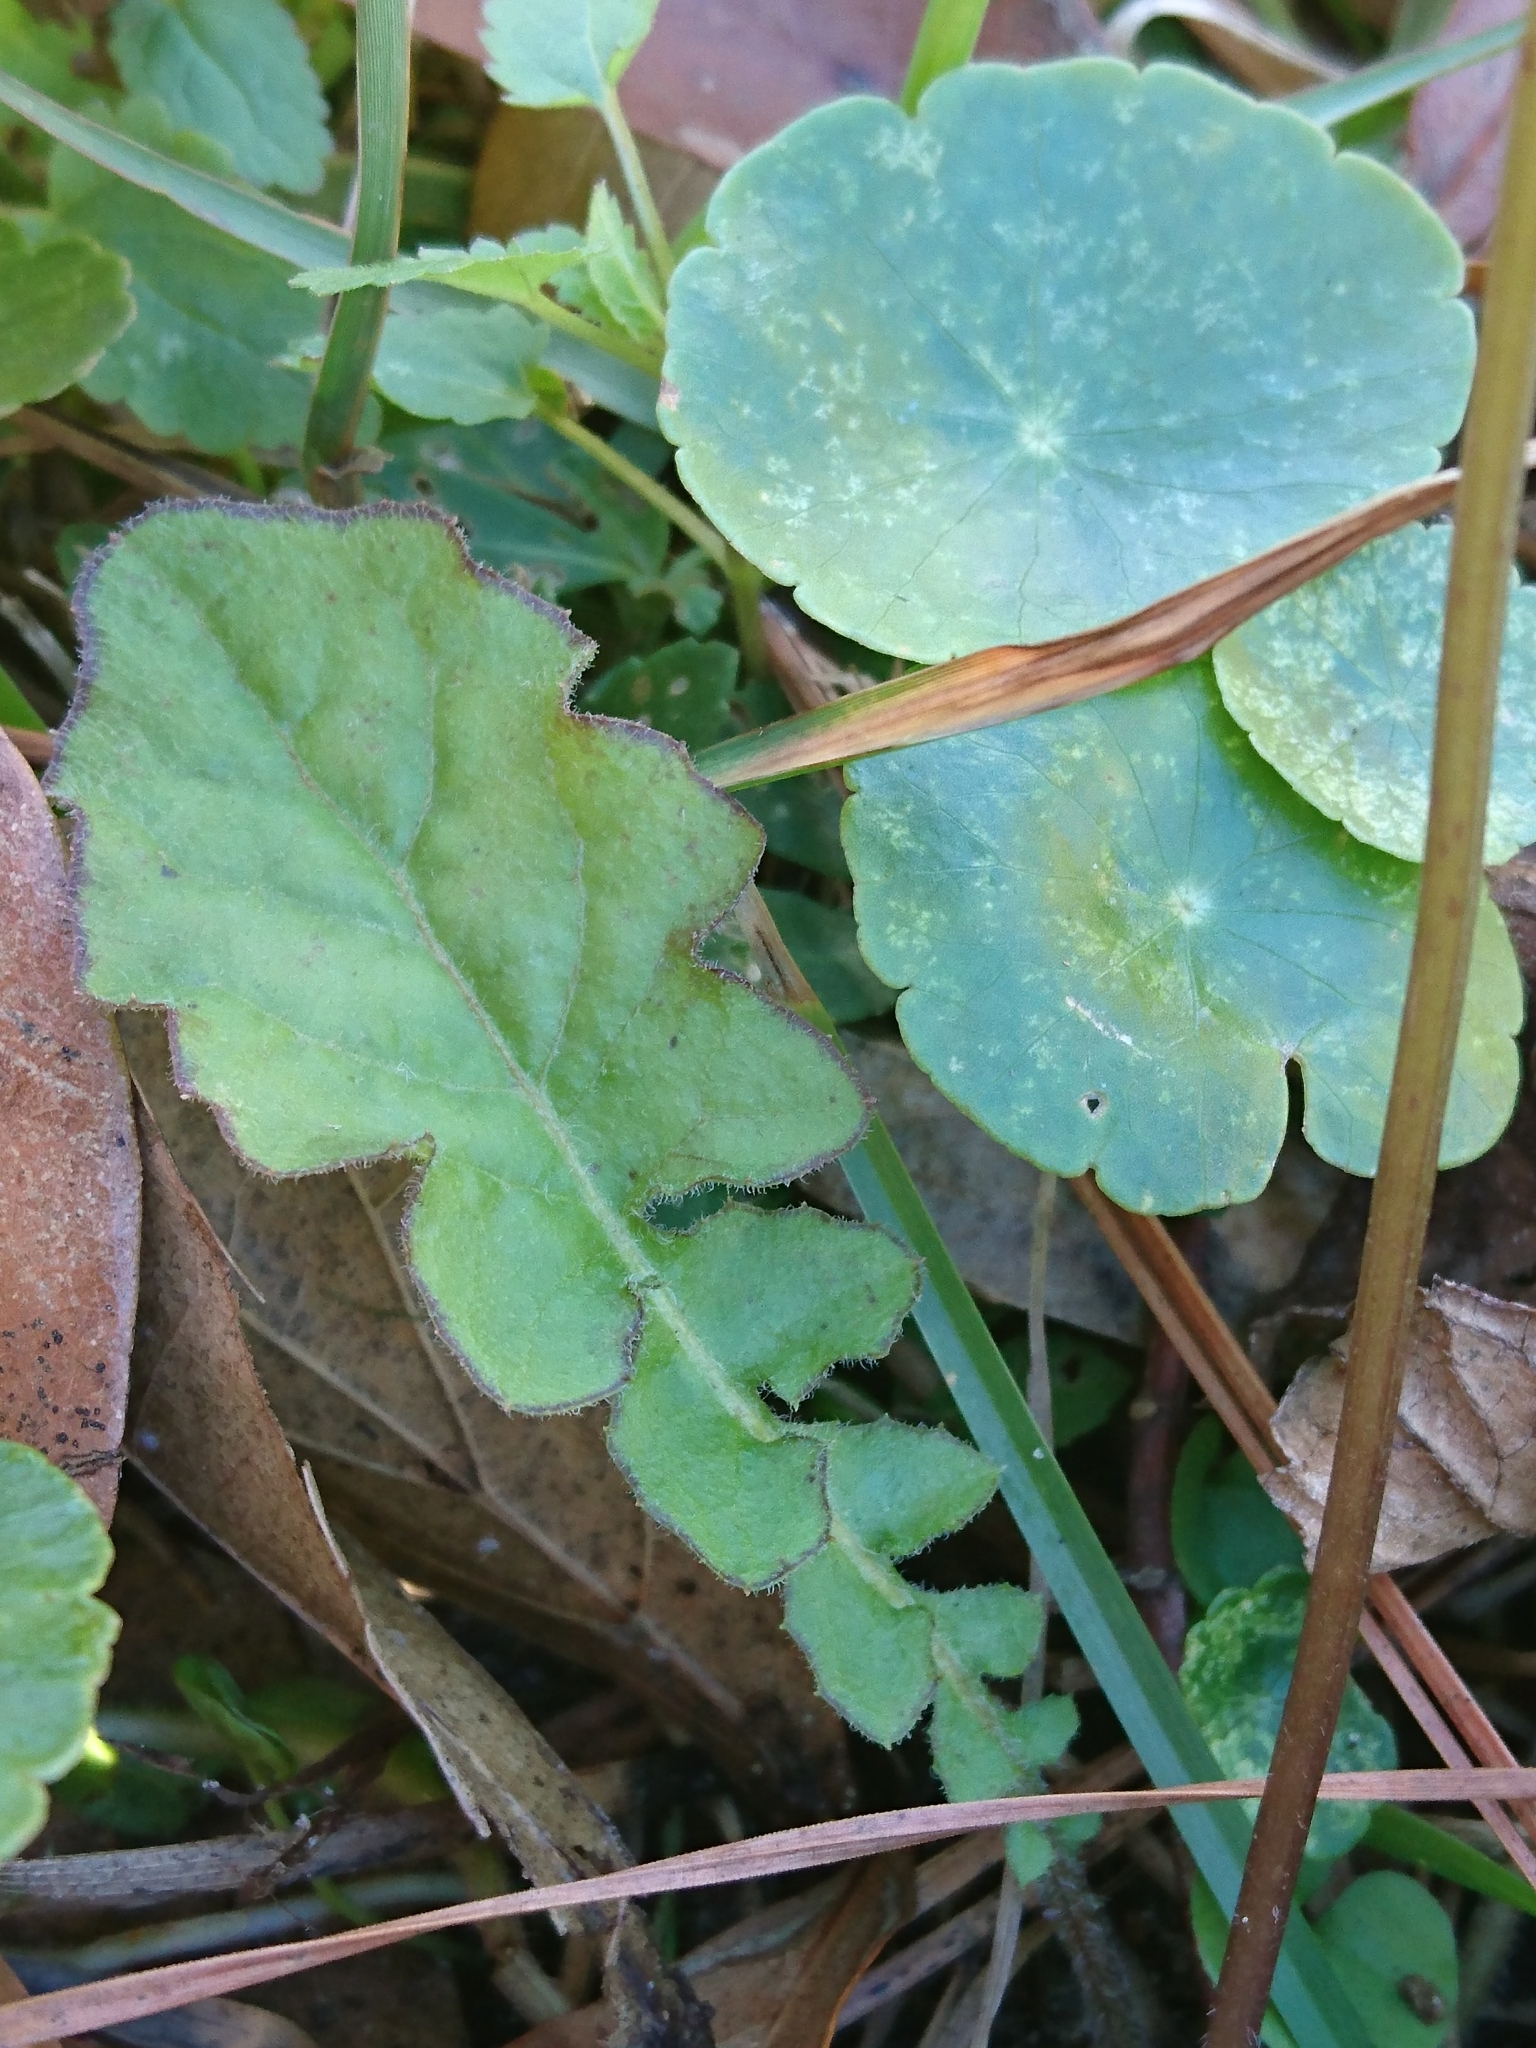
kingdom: Plantae
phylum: Tracheophyta
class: Magnoliopsida
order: Asterales
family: Asteraceae
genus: Youngia
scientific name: Youngia japonica
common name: Oriental false hawksbeard
